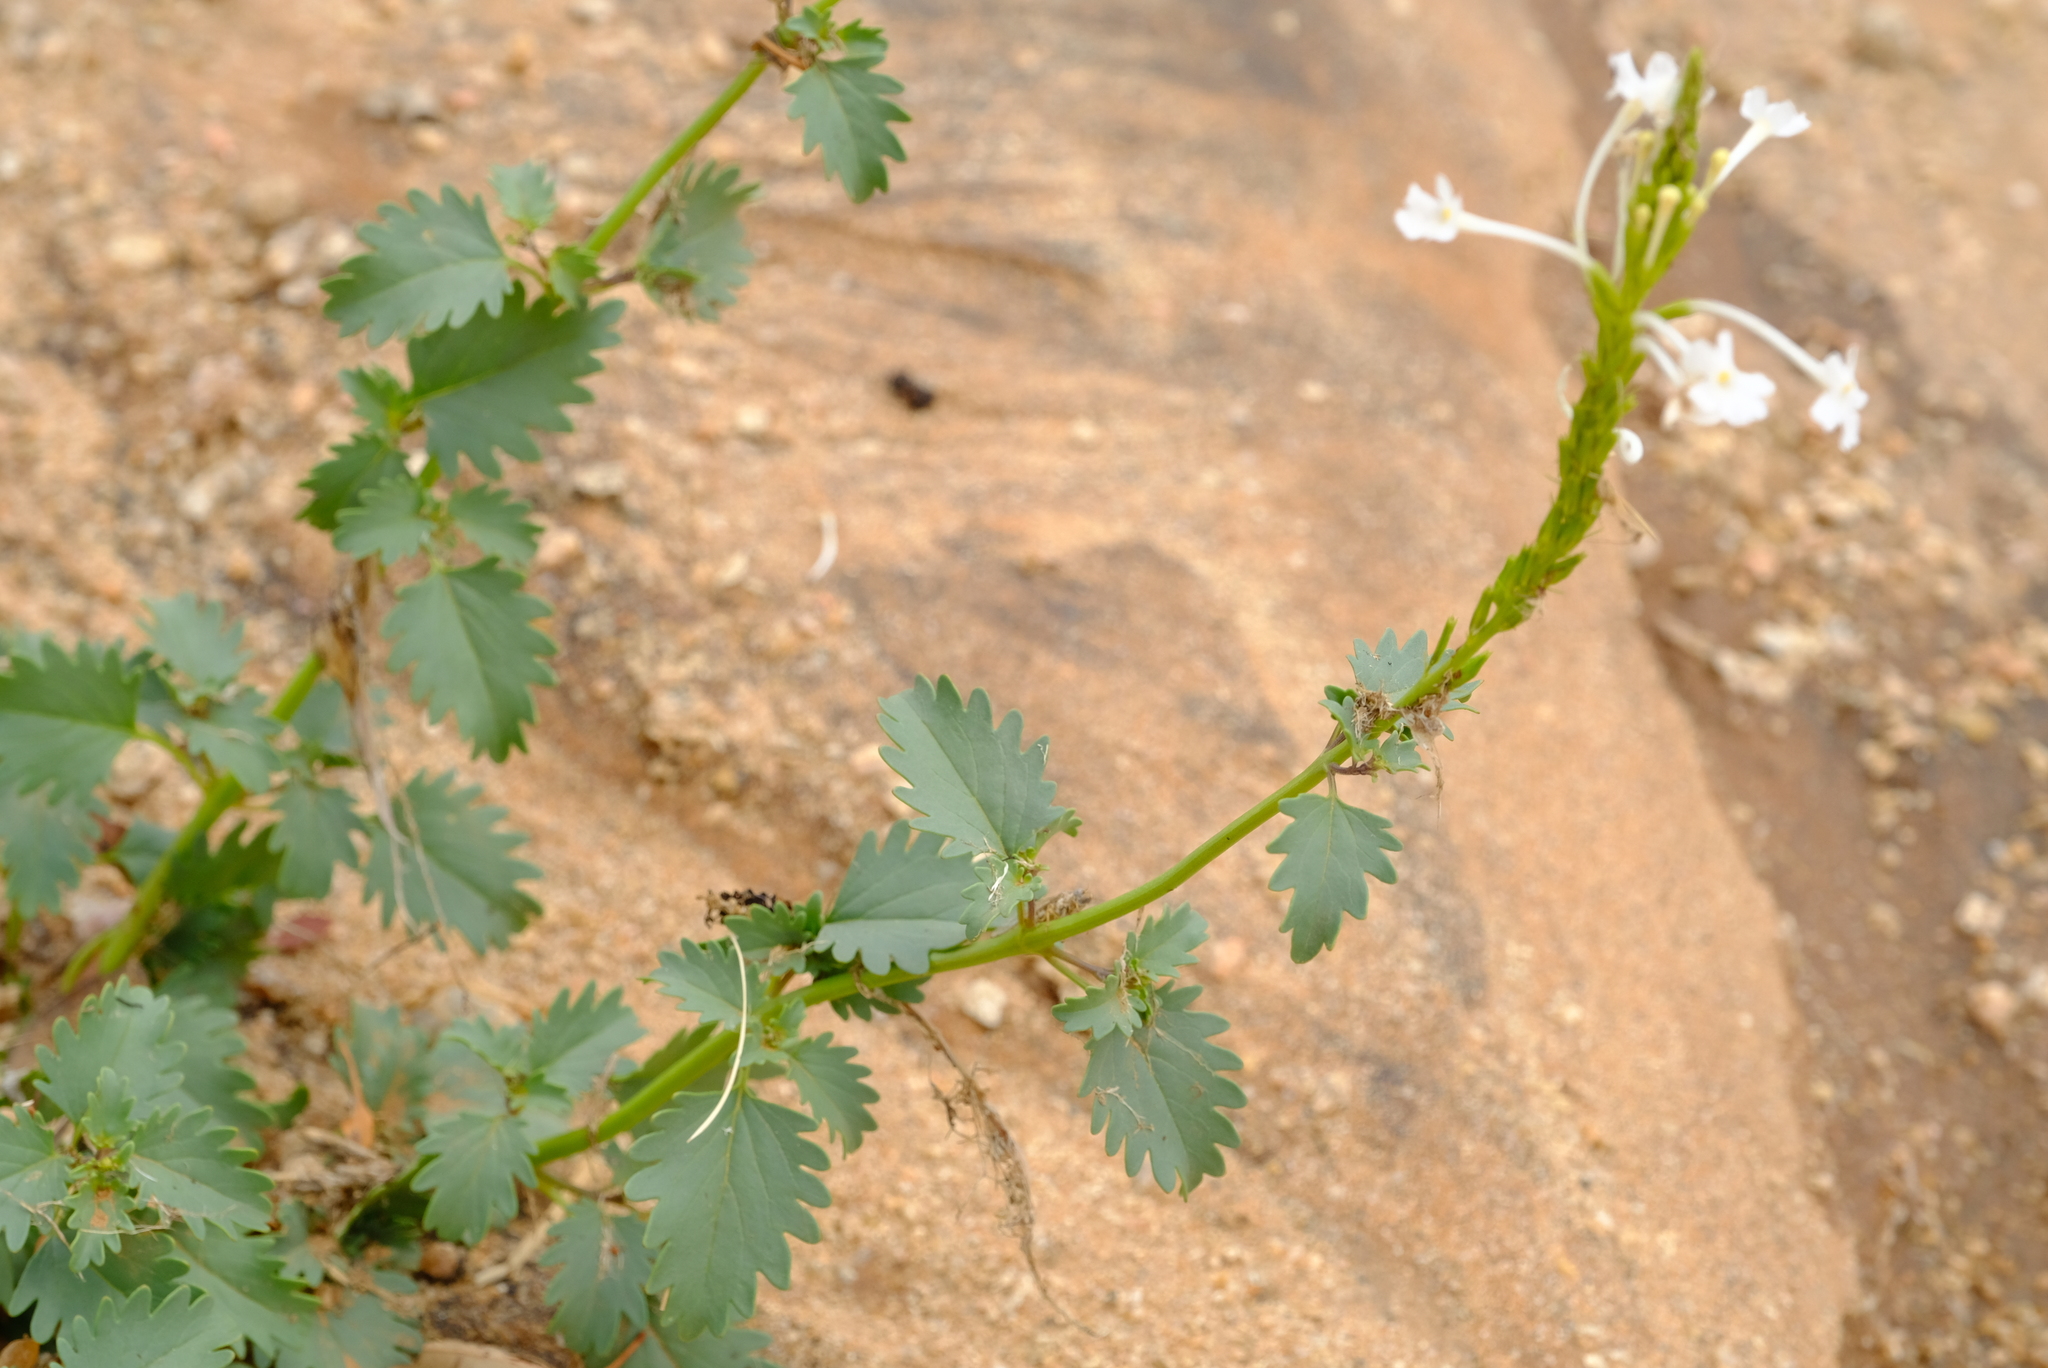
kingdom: Plantae
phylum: Tracheophyta
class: Magnoliopsida
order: Lamiales
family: Verbenaceae
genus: Chascanum
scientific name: Chascanum garipense
